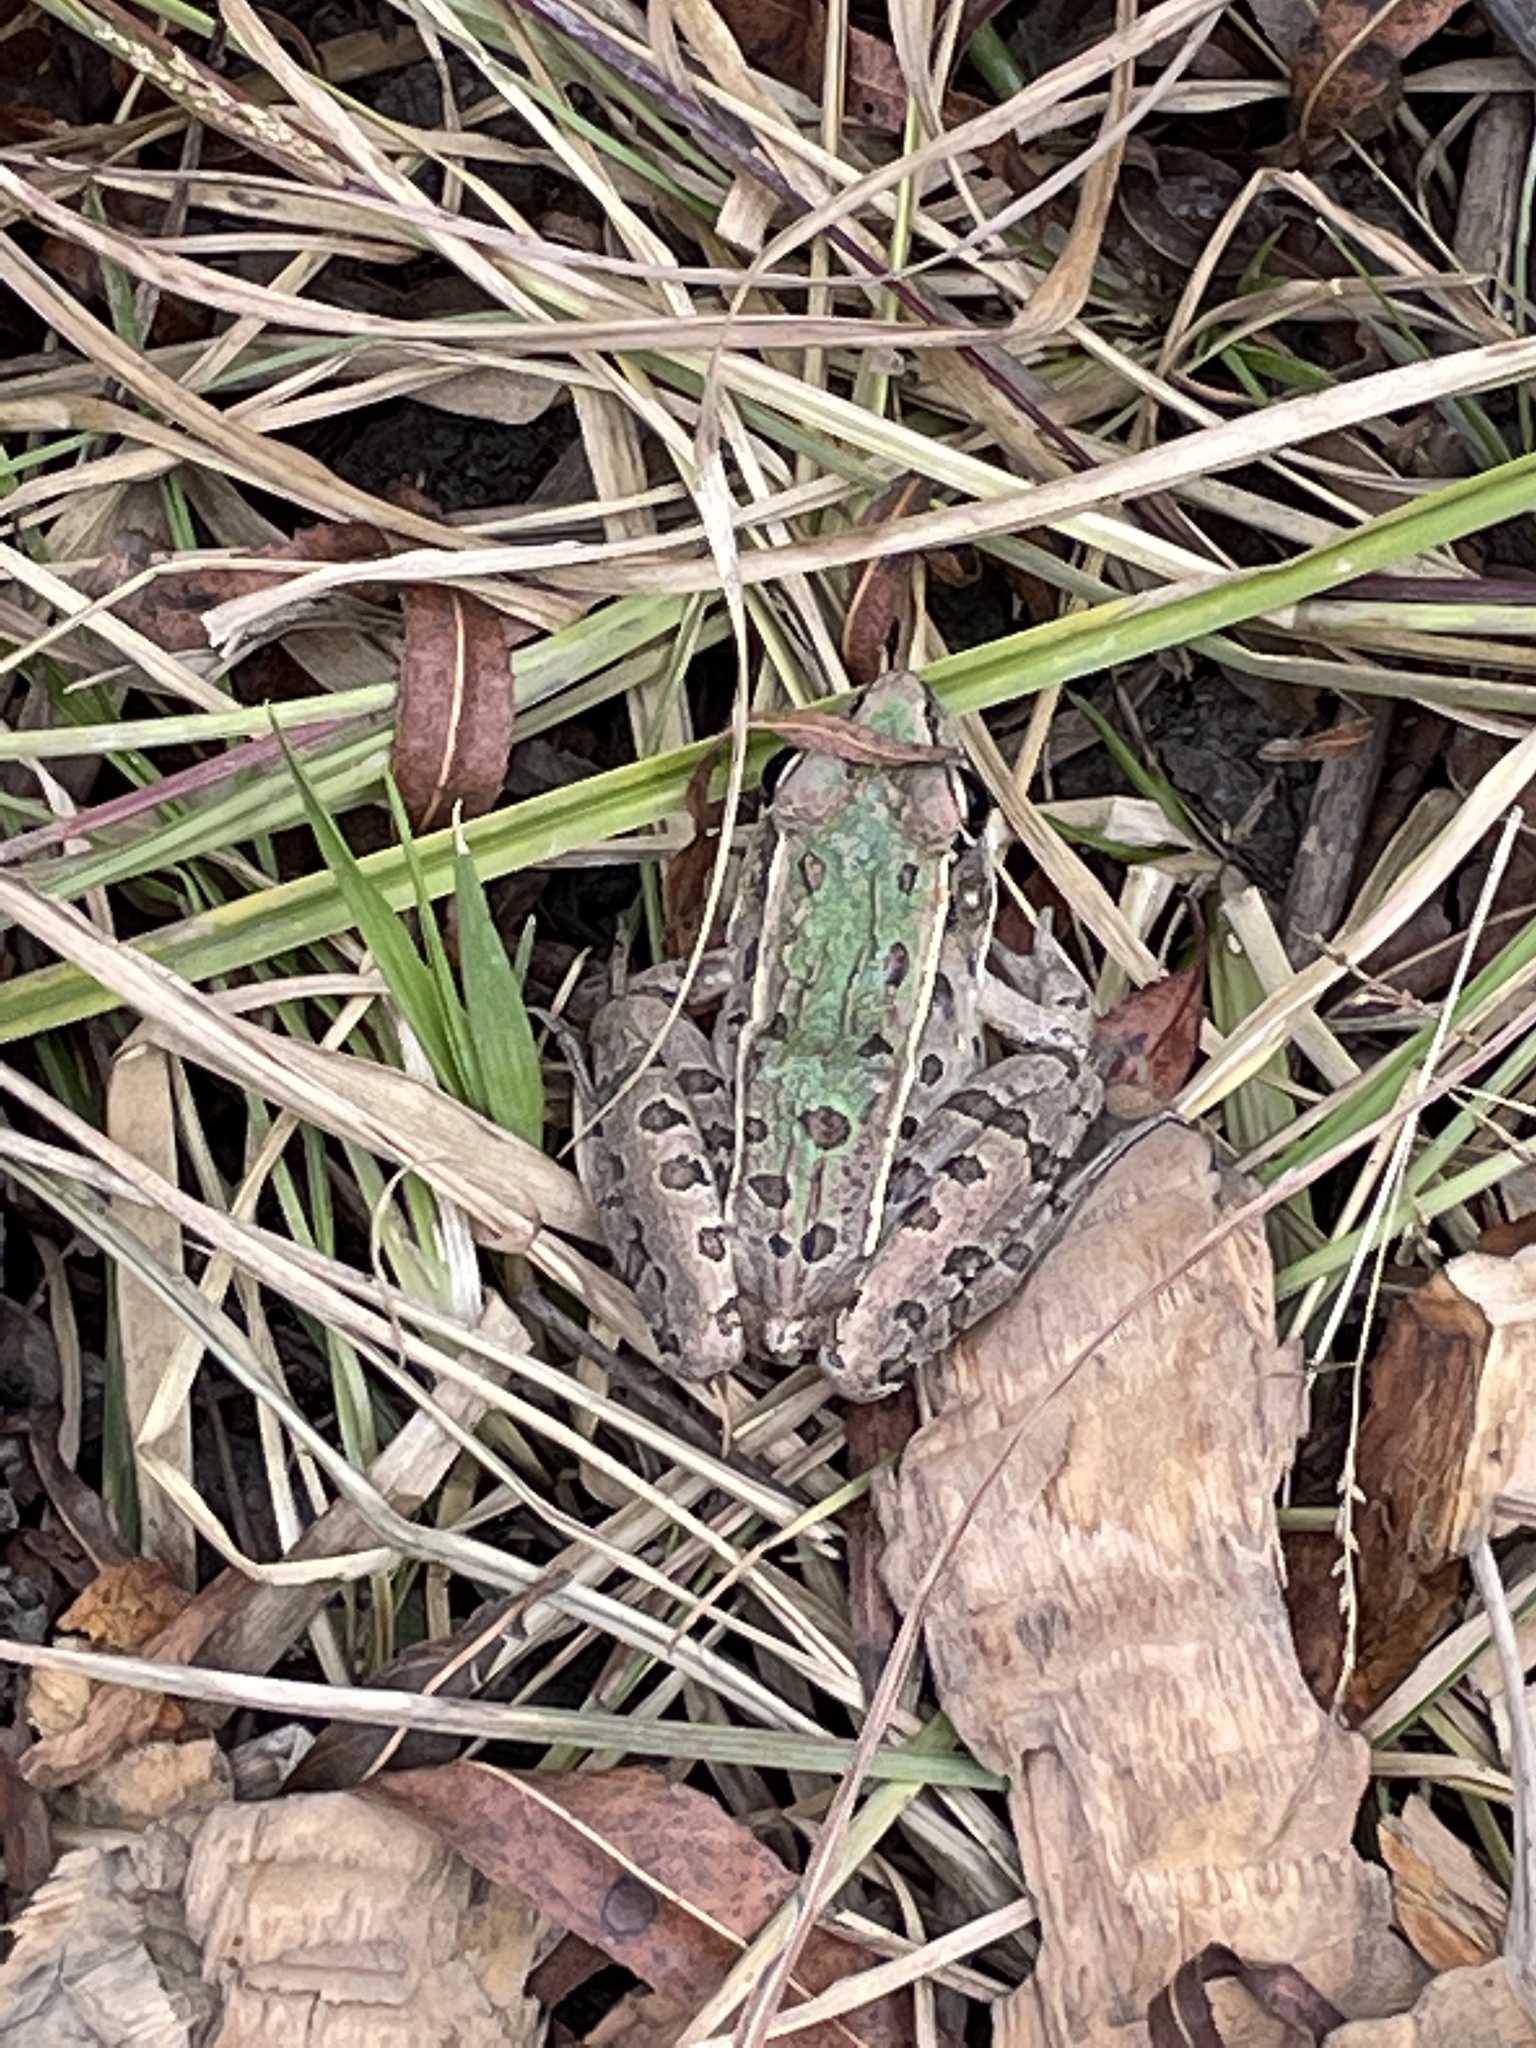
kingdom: Animalia
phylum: Chordata
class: Amphibia
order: Anura
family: Ranidae
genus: Lithobates
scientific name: Lithobates sphenocephalus
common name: Southern leopard frog
